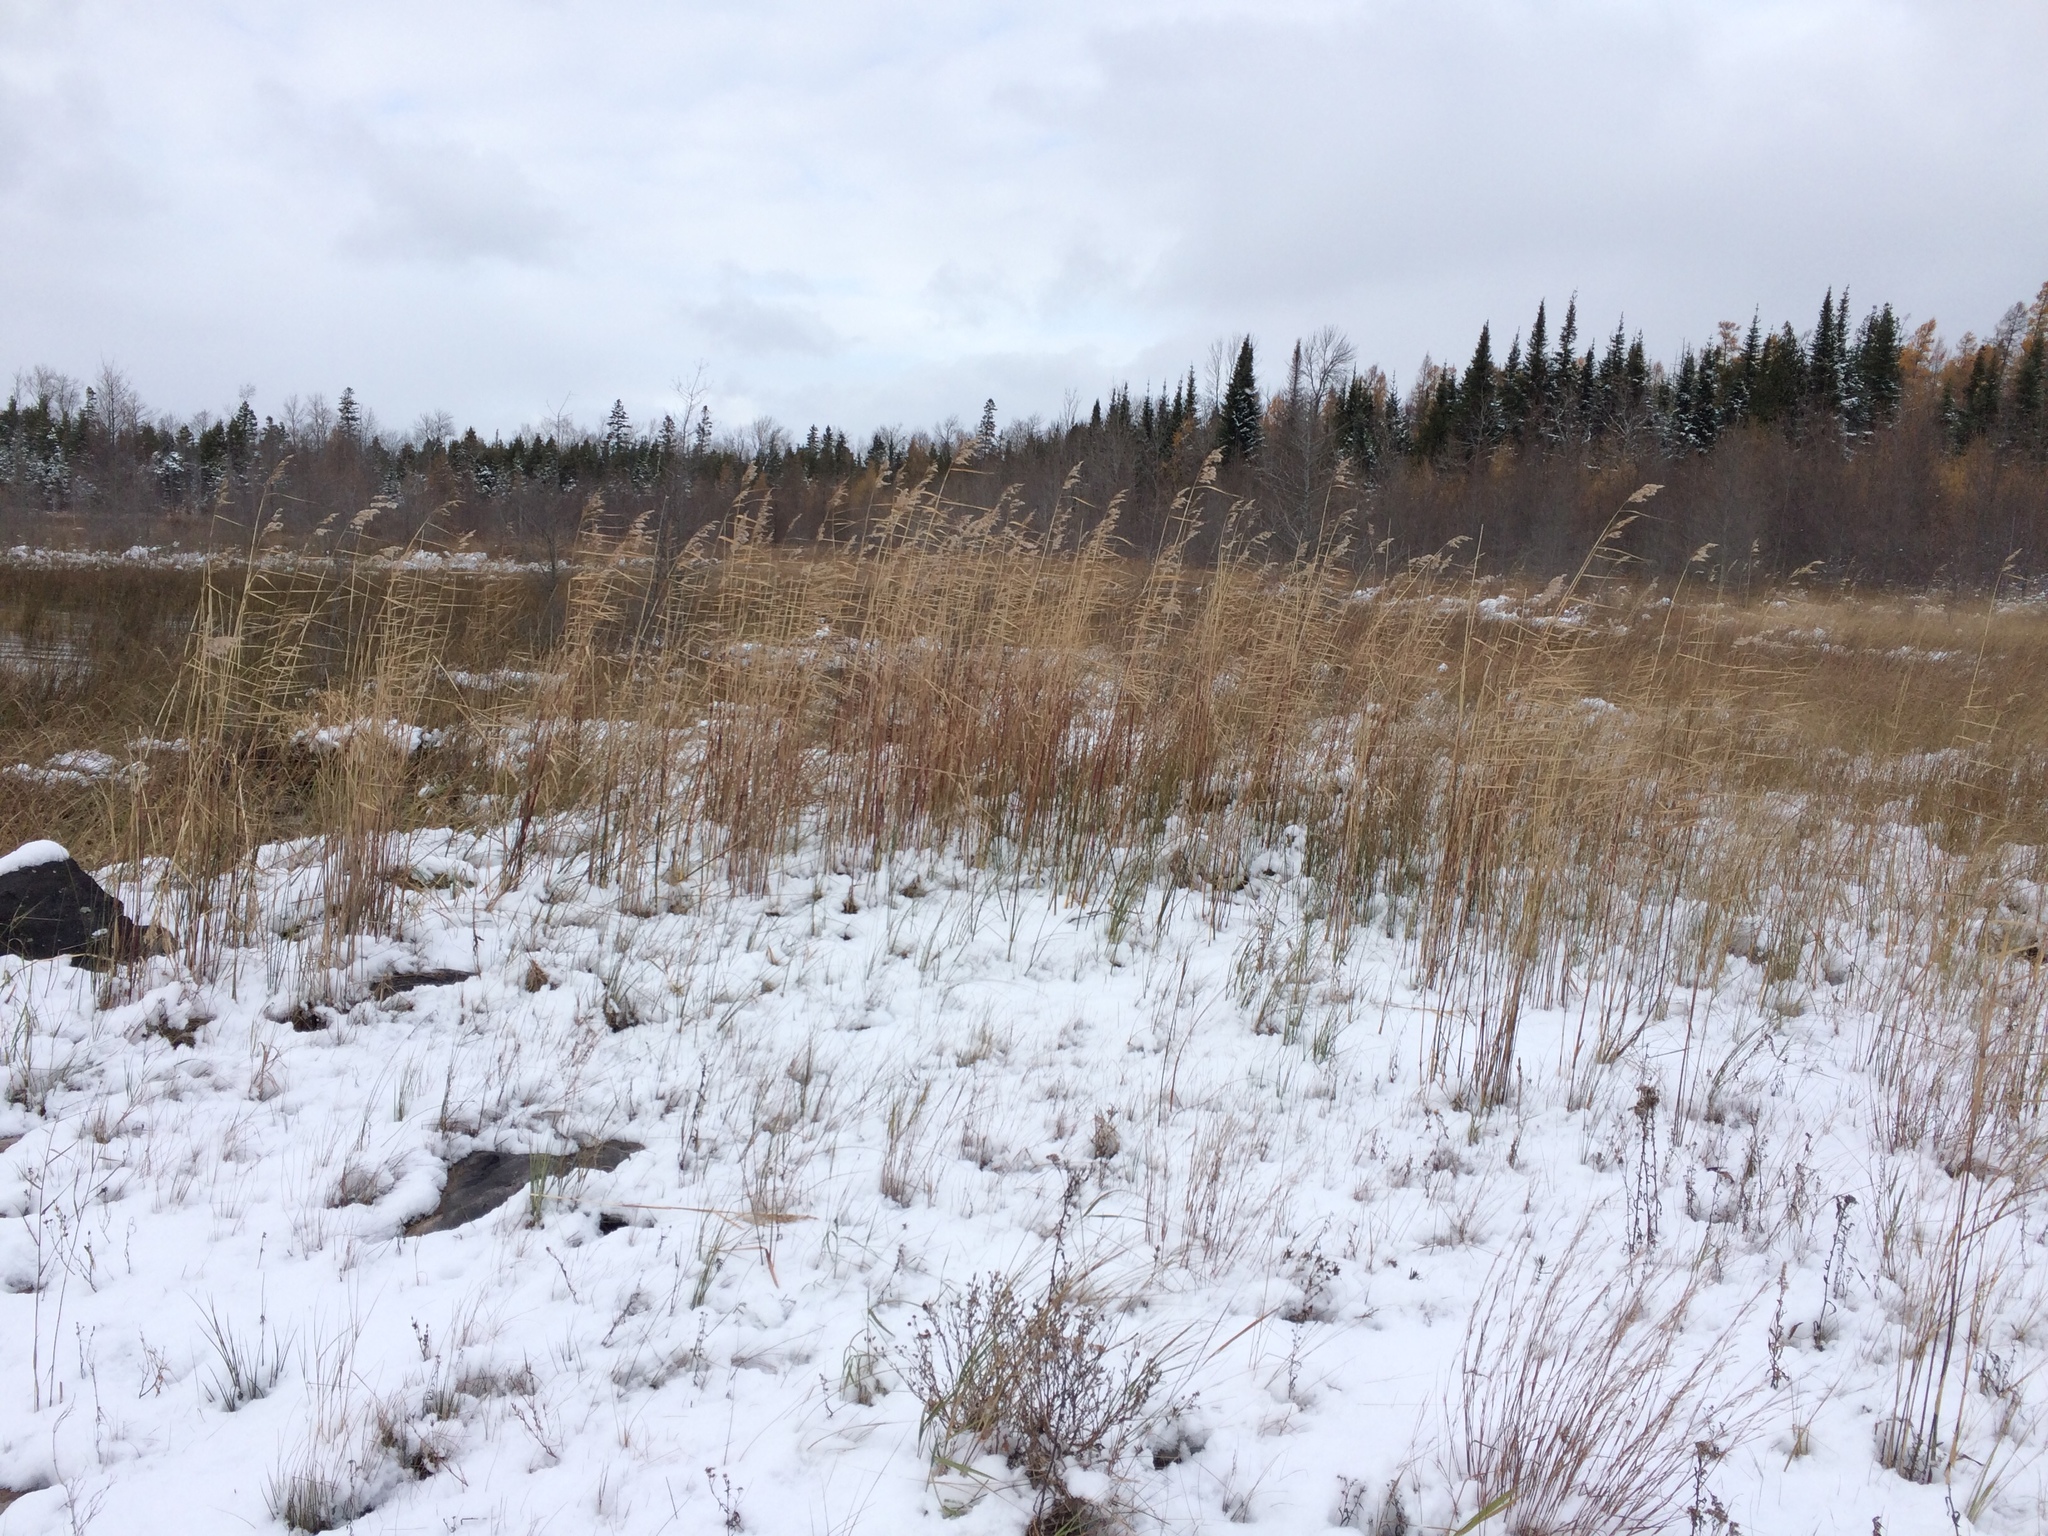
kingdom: Plantae
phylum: Tracheophyta
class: Liliopsida
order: Poales
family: Poaceae
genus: Phragmites
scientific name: Phragmites australis
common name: Common reed
